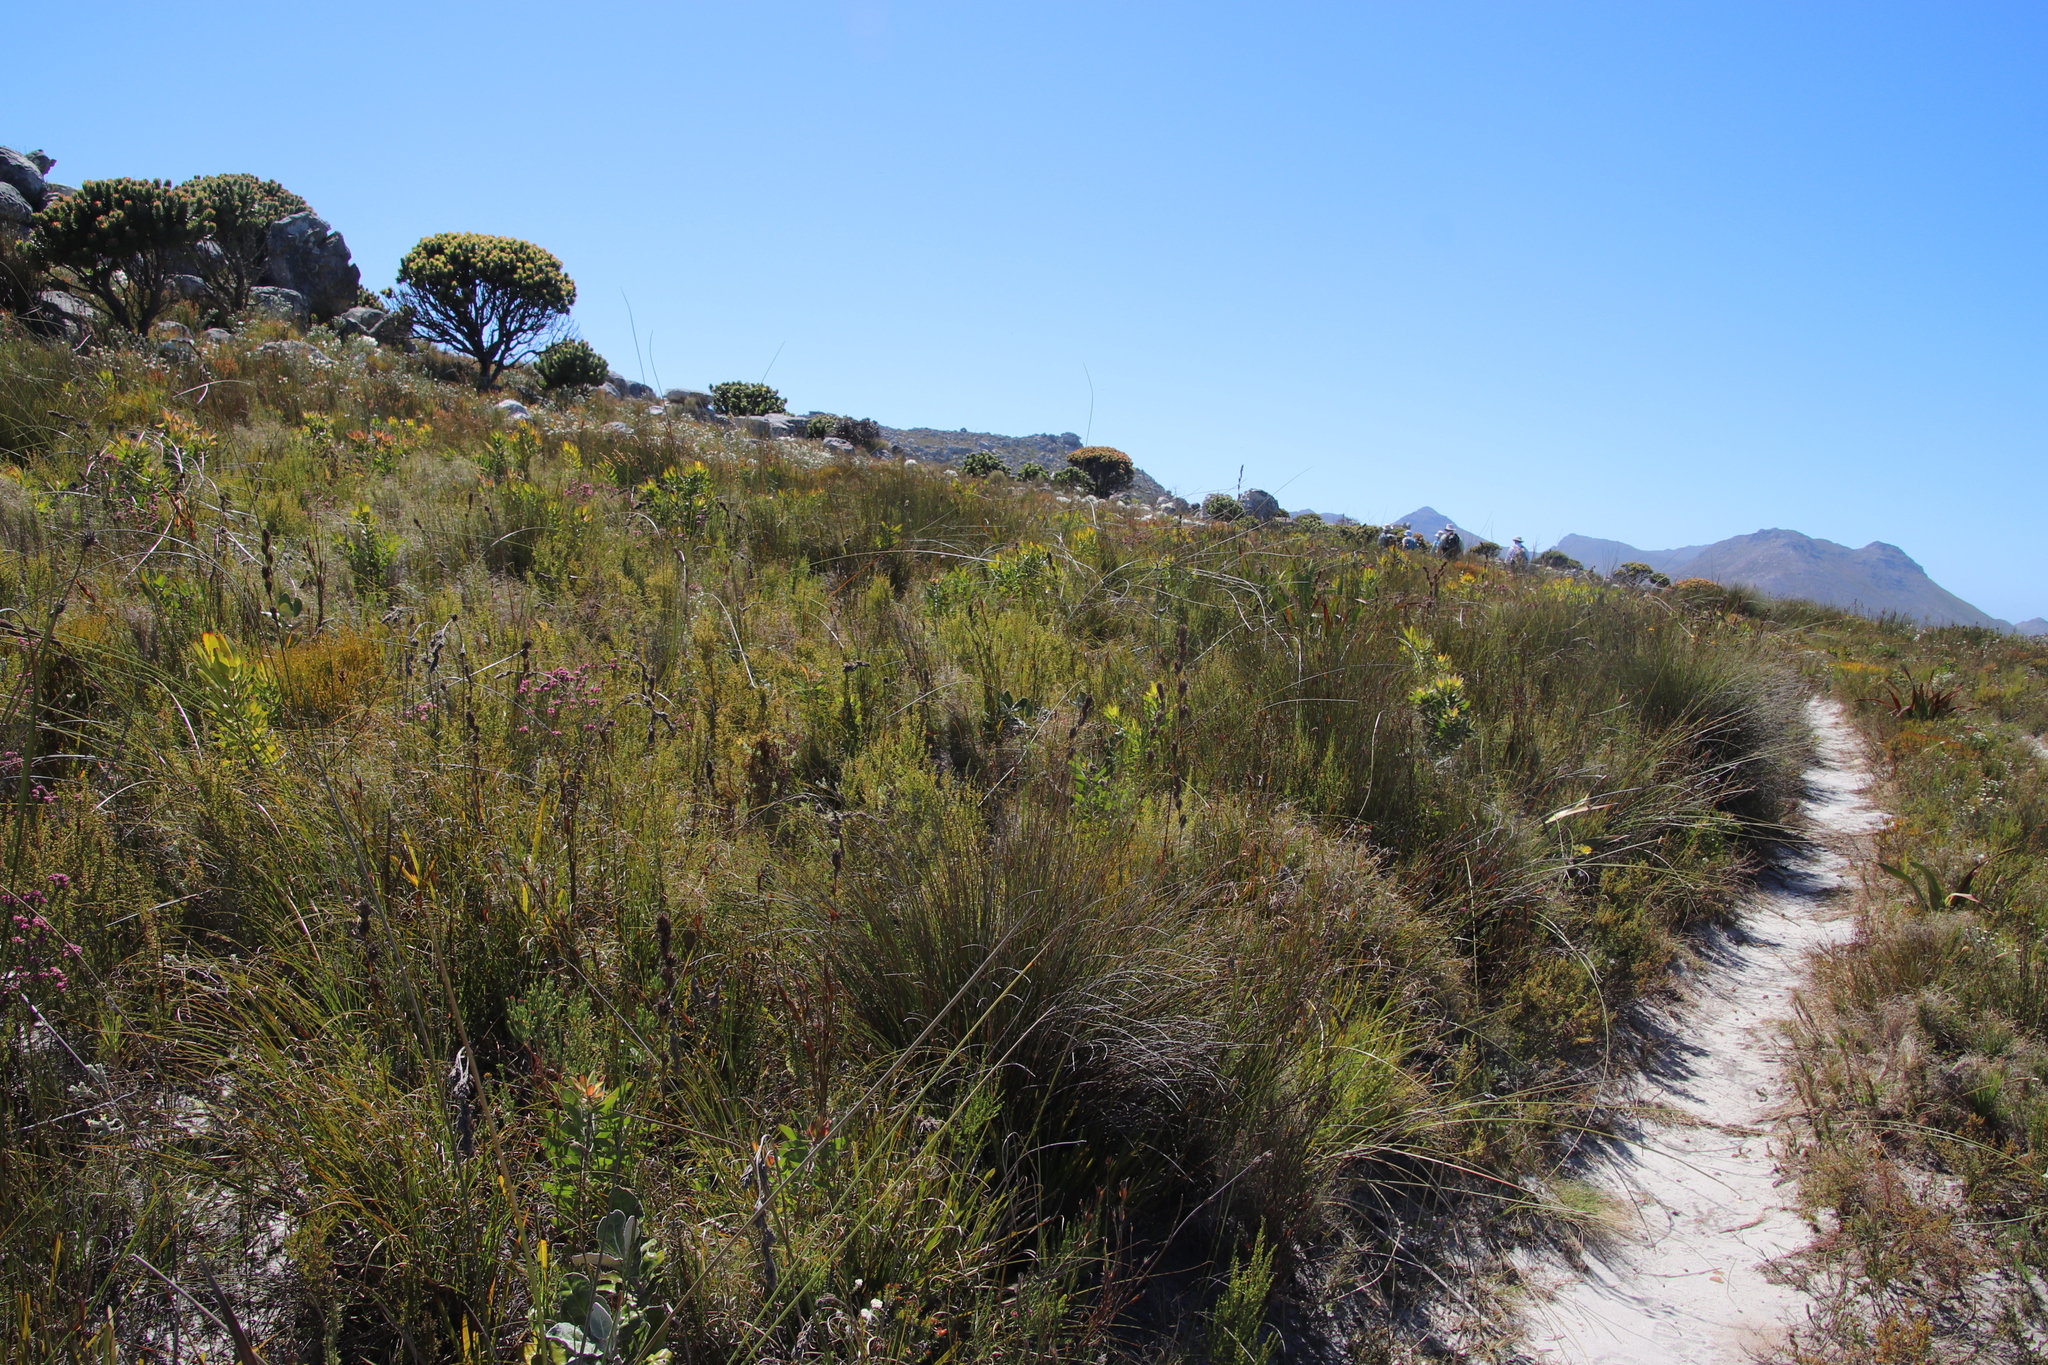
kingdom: Plantae
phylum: Tracheophyta
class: Magnoliopsida
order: Ericales
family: Ericaceae
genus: Erica
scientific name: Erica corifolia
